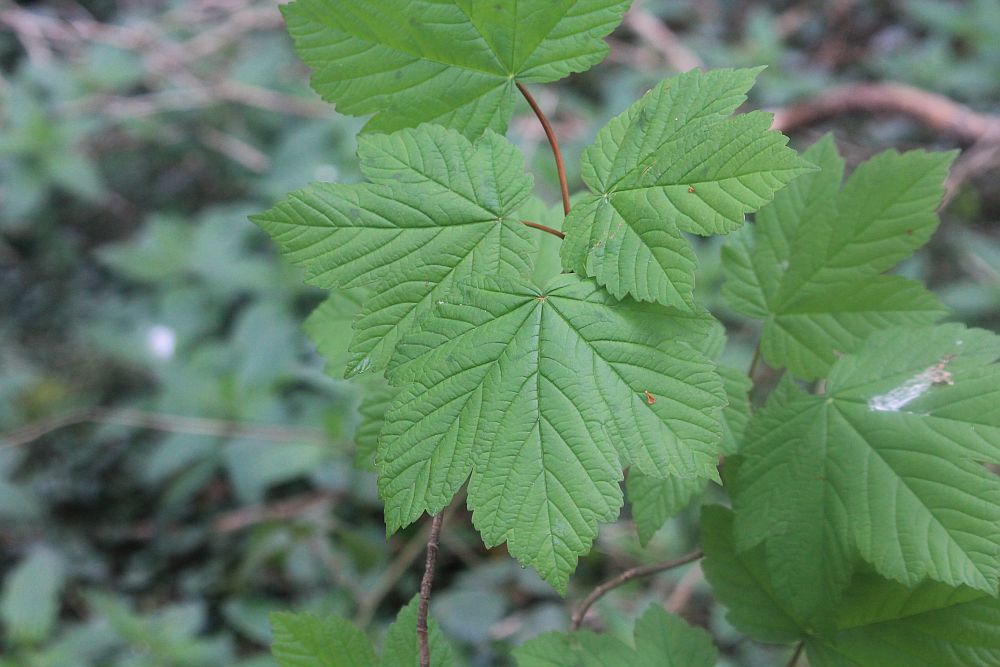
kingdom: Plantae
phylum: Tracheophyta
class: Magnoliopsida
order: Sapindales
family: Sapindaceae
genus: Acer
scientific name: Acer pseudoplatanus
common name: Sycamore
